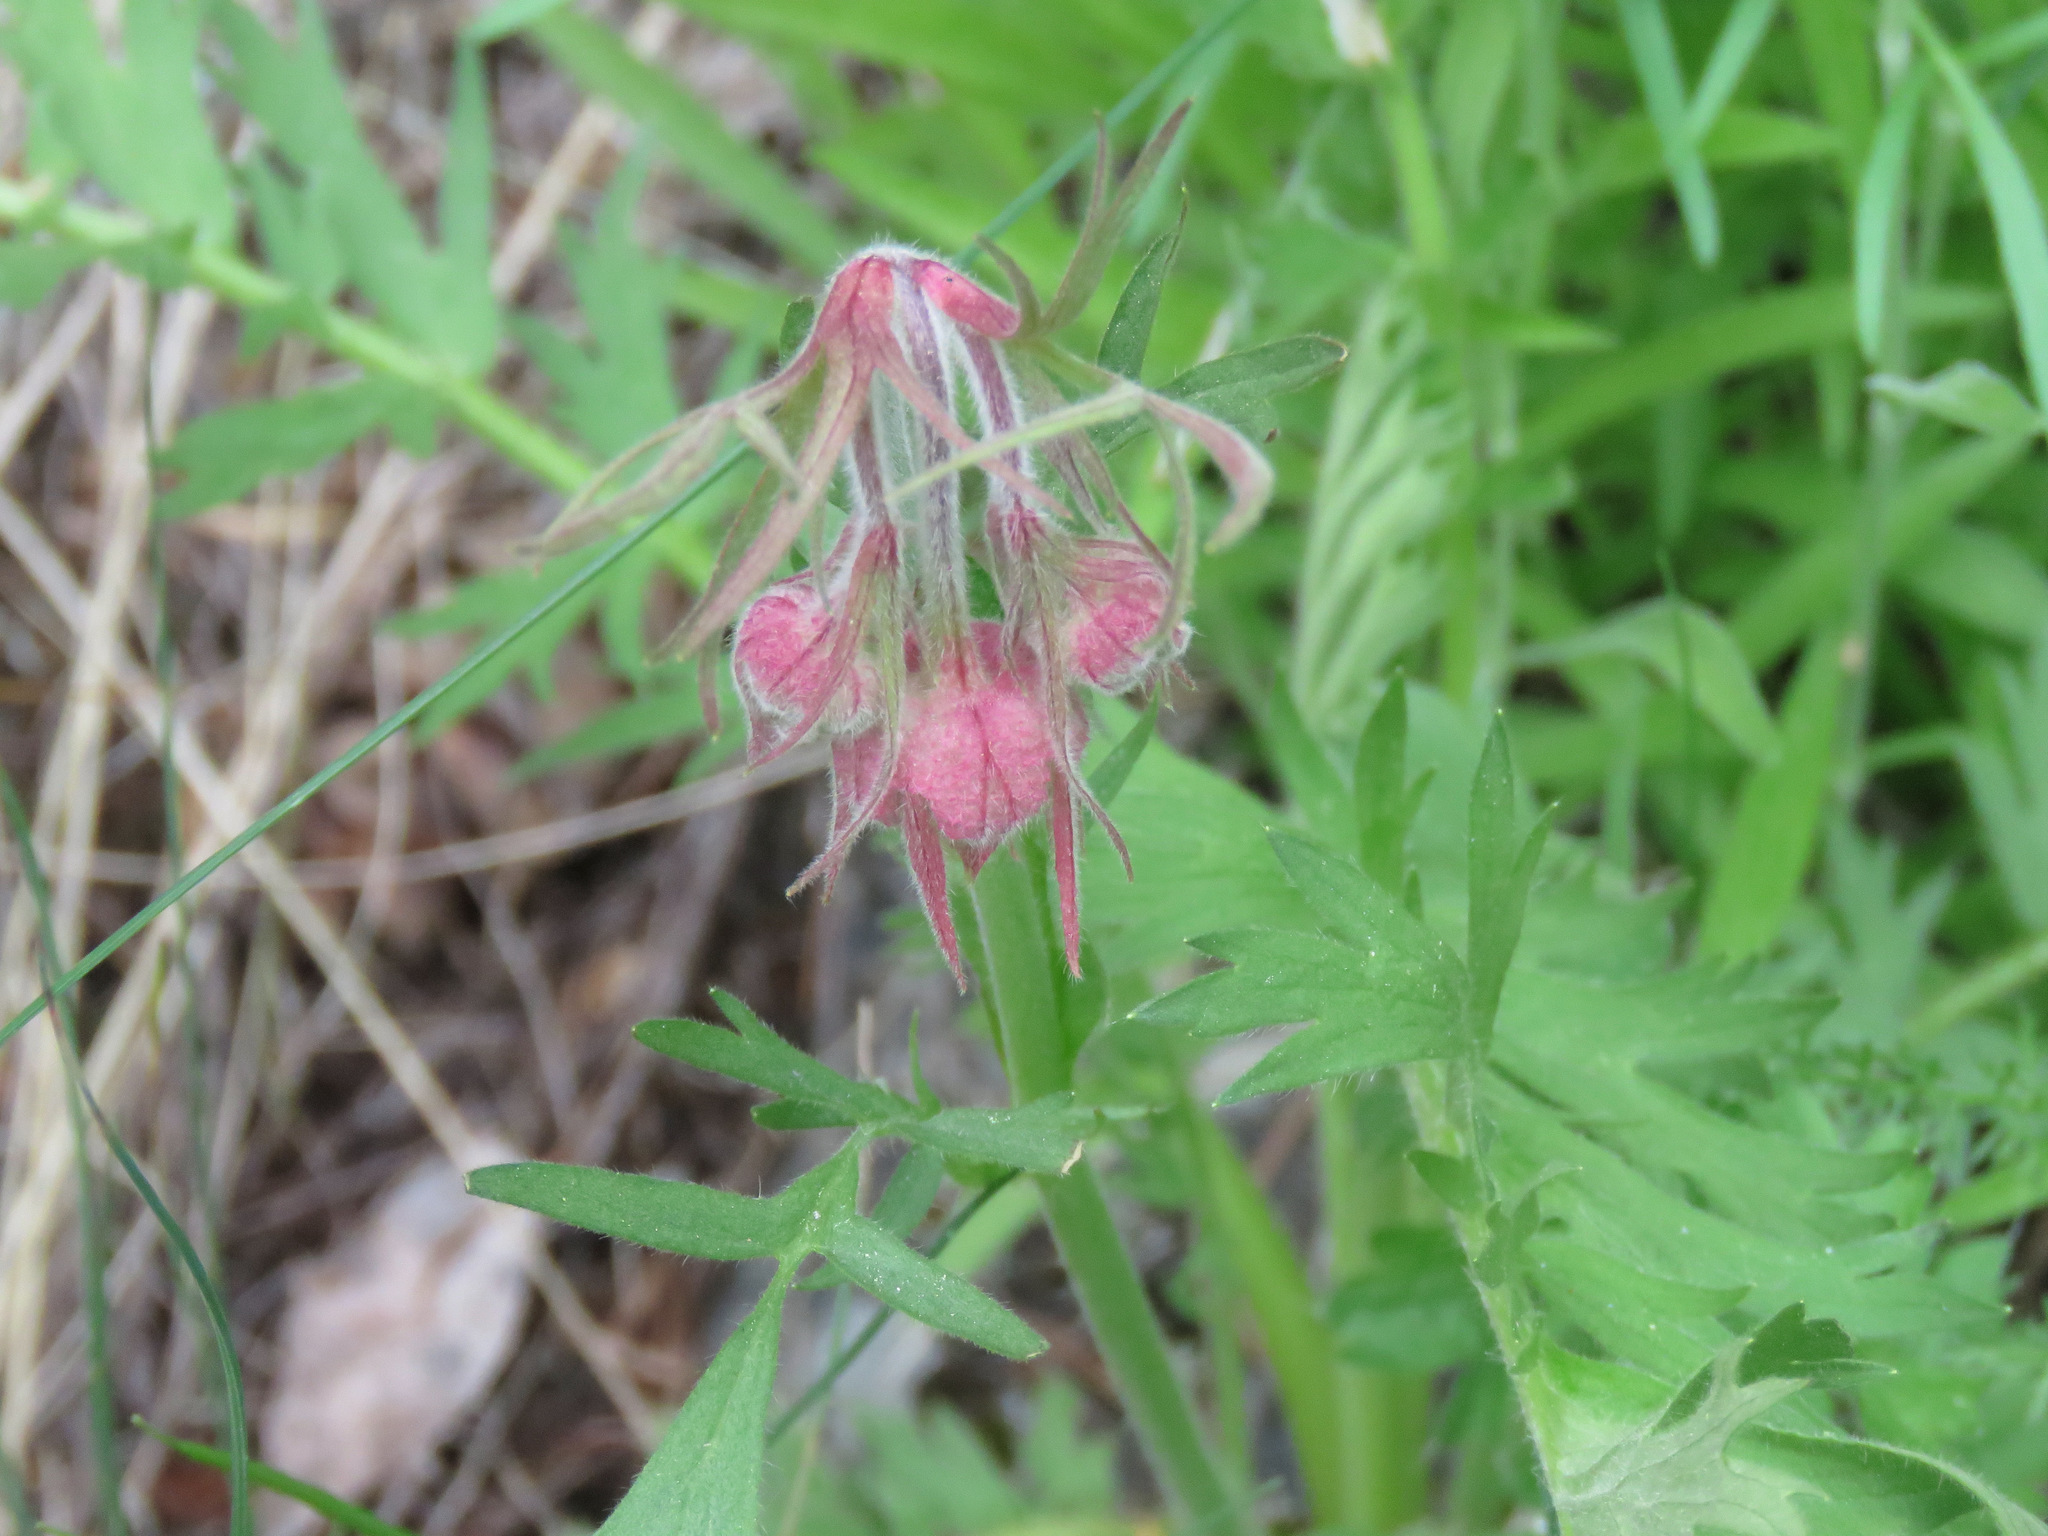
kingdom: Plantae
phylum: Tracheophyta
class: Magnoliopsida
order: Rosales
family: Rosaceae
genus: Geum
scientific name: Geum triflorum
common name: Old man's whiskers
